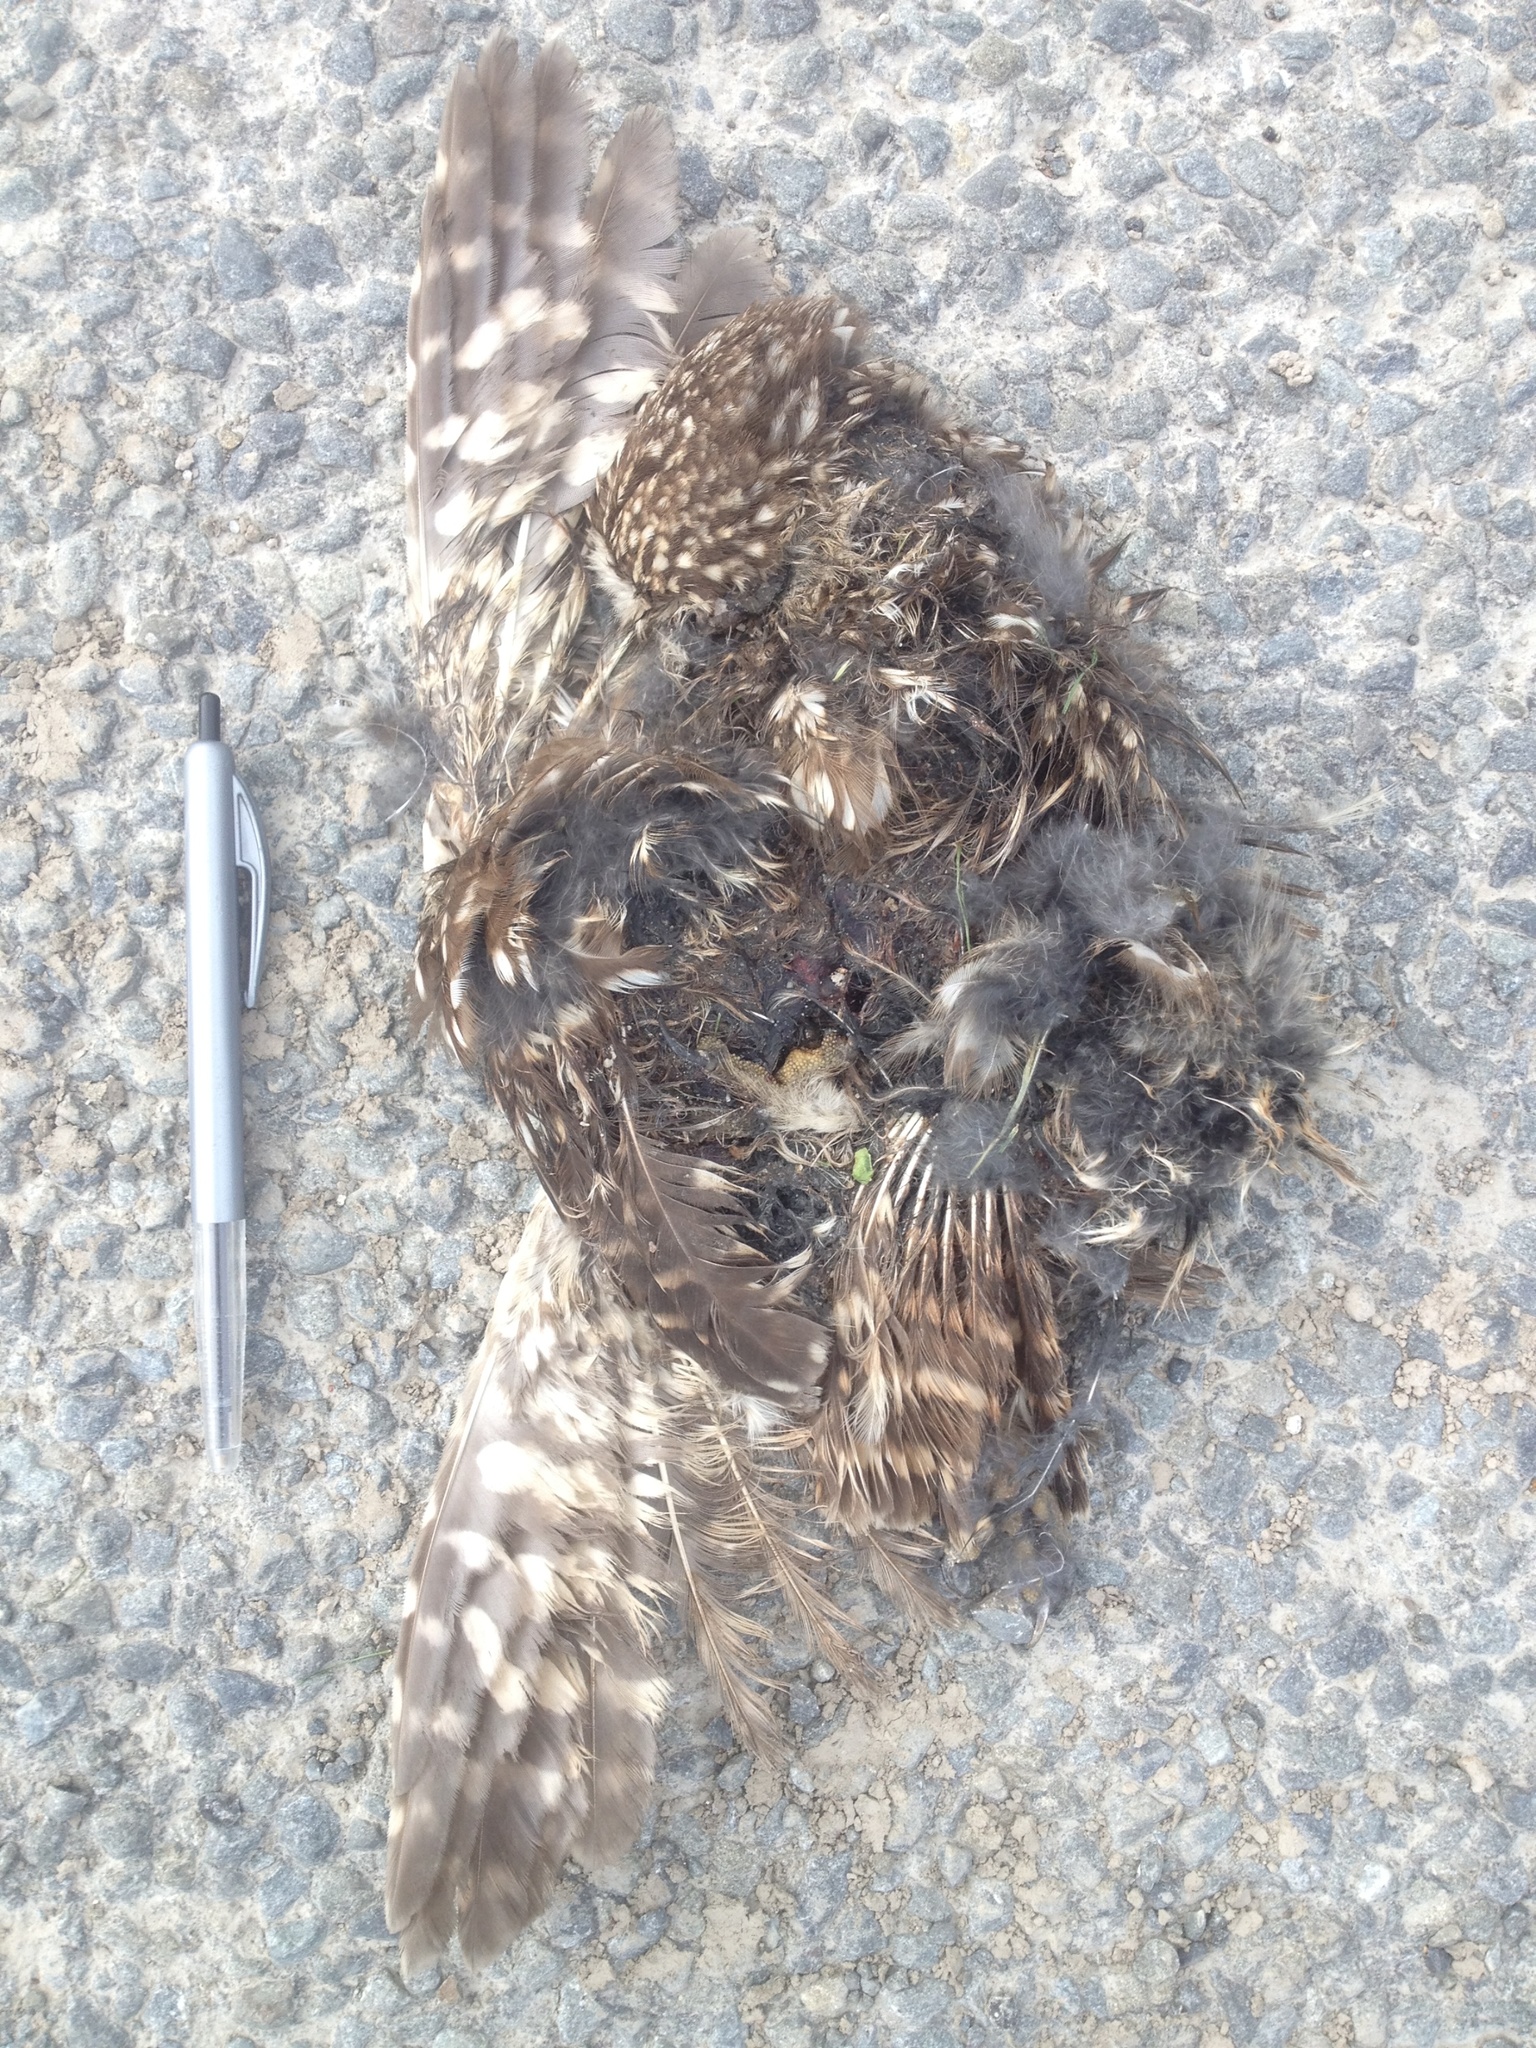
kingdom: Animalia
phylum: Chordata
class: Aves
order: Strigiformes
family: Strigidae
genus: Athene
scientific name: Athene noctua
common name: Little owl
